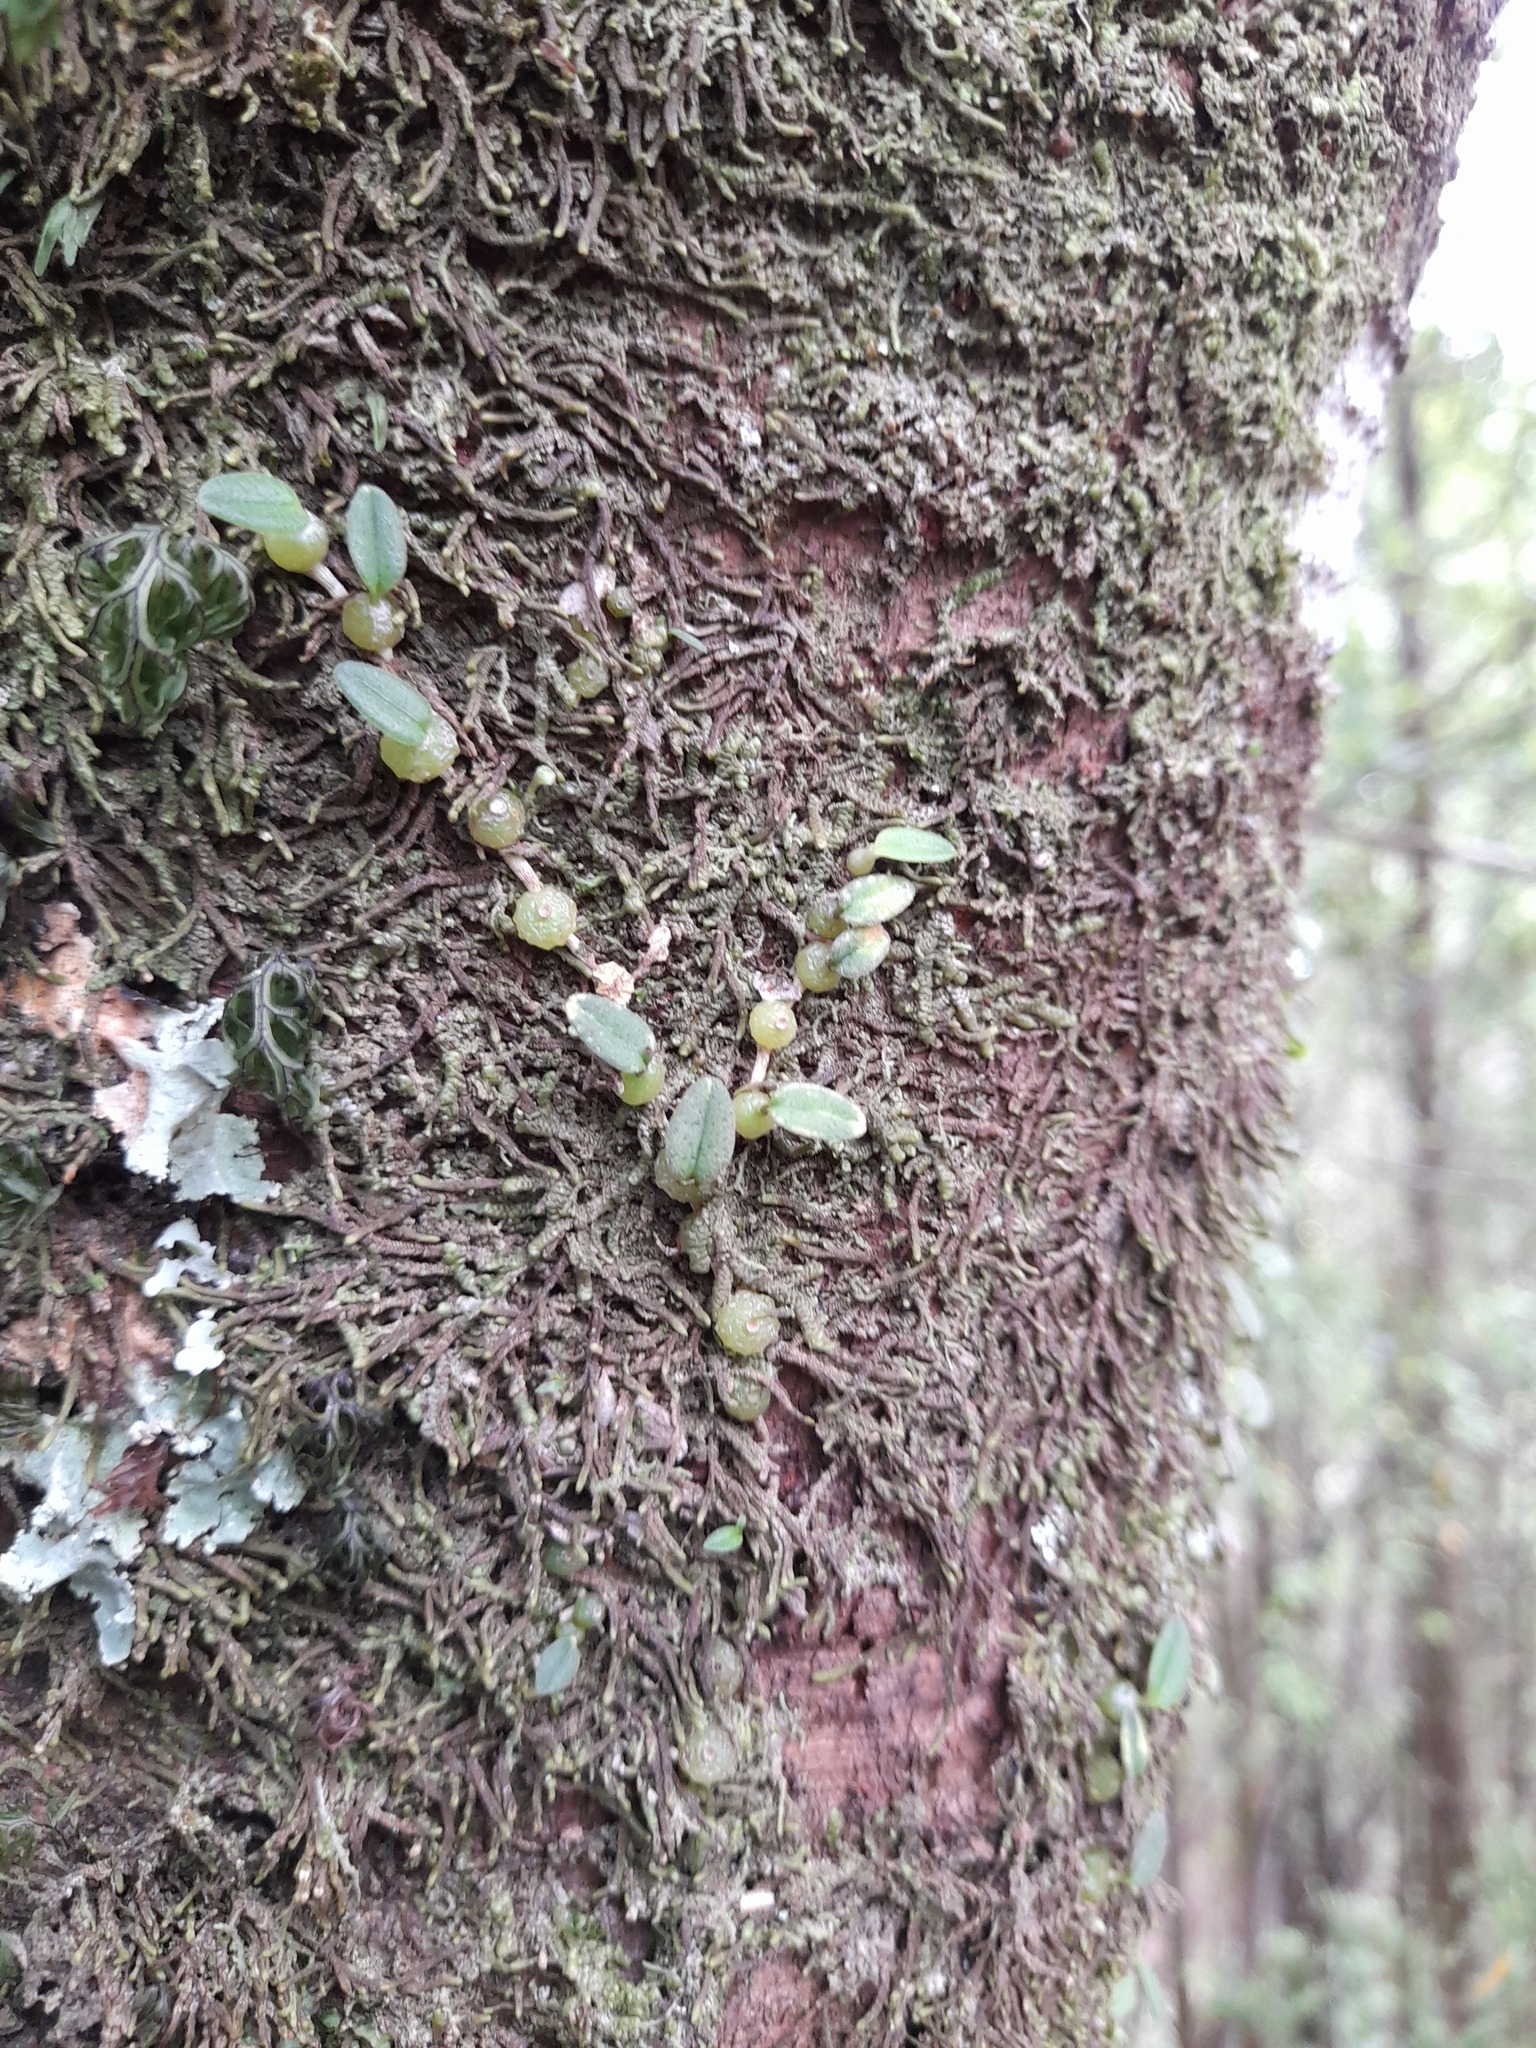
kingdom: Plantae
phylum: Tracheophyta
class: Liliopsida
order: Asparagales
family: Orchidaceae
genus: Bulbophyllum
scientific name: Bulbophyllum pygmaeum
